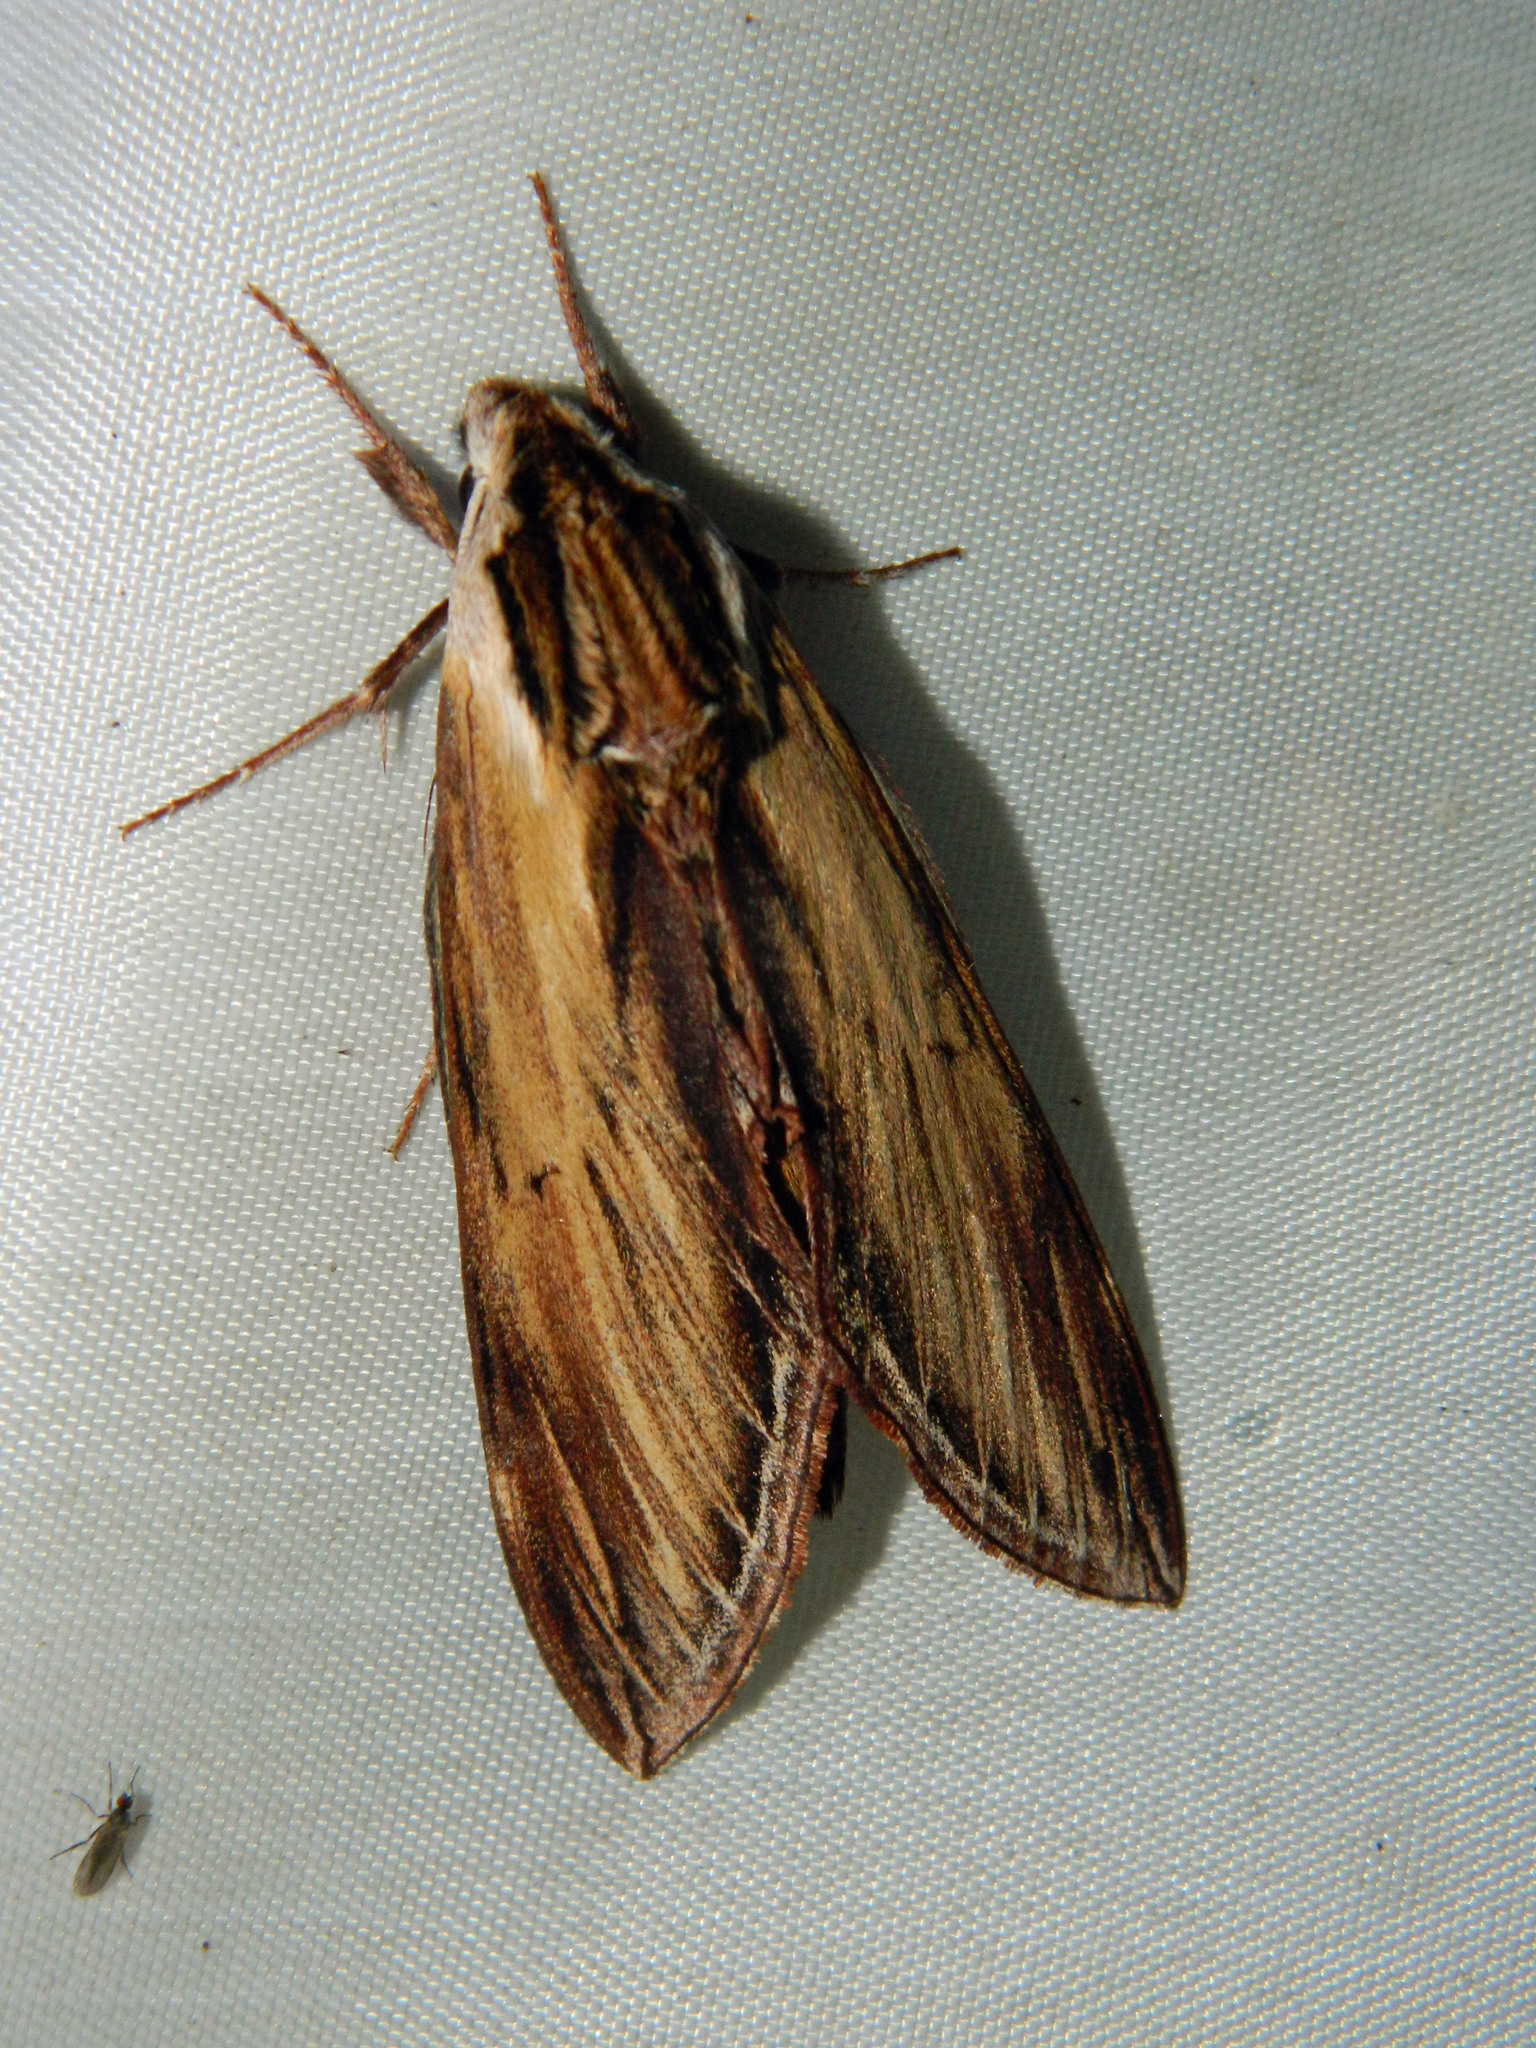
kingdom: Animalia
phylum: Arthropoda
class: Insecta
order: Lepidoptera
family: Sphingidae
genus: Sphinx
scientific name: Sphinx kalmiae
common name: Laurel sphinx
